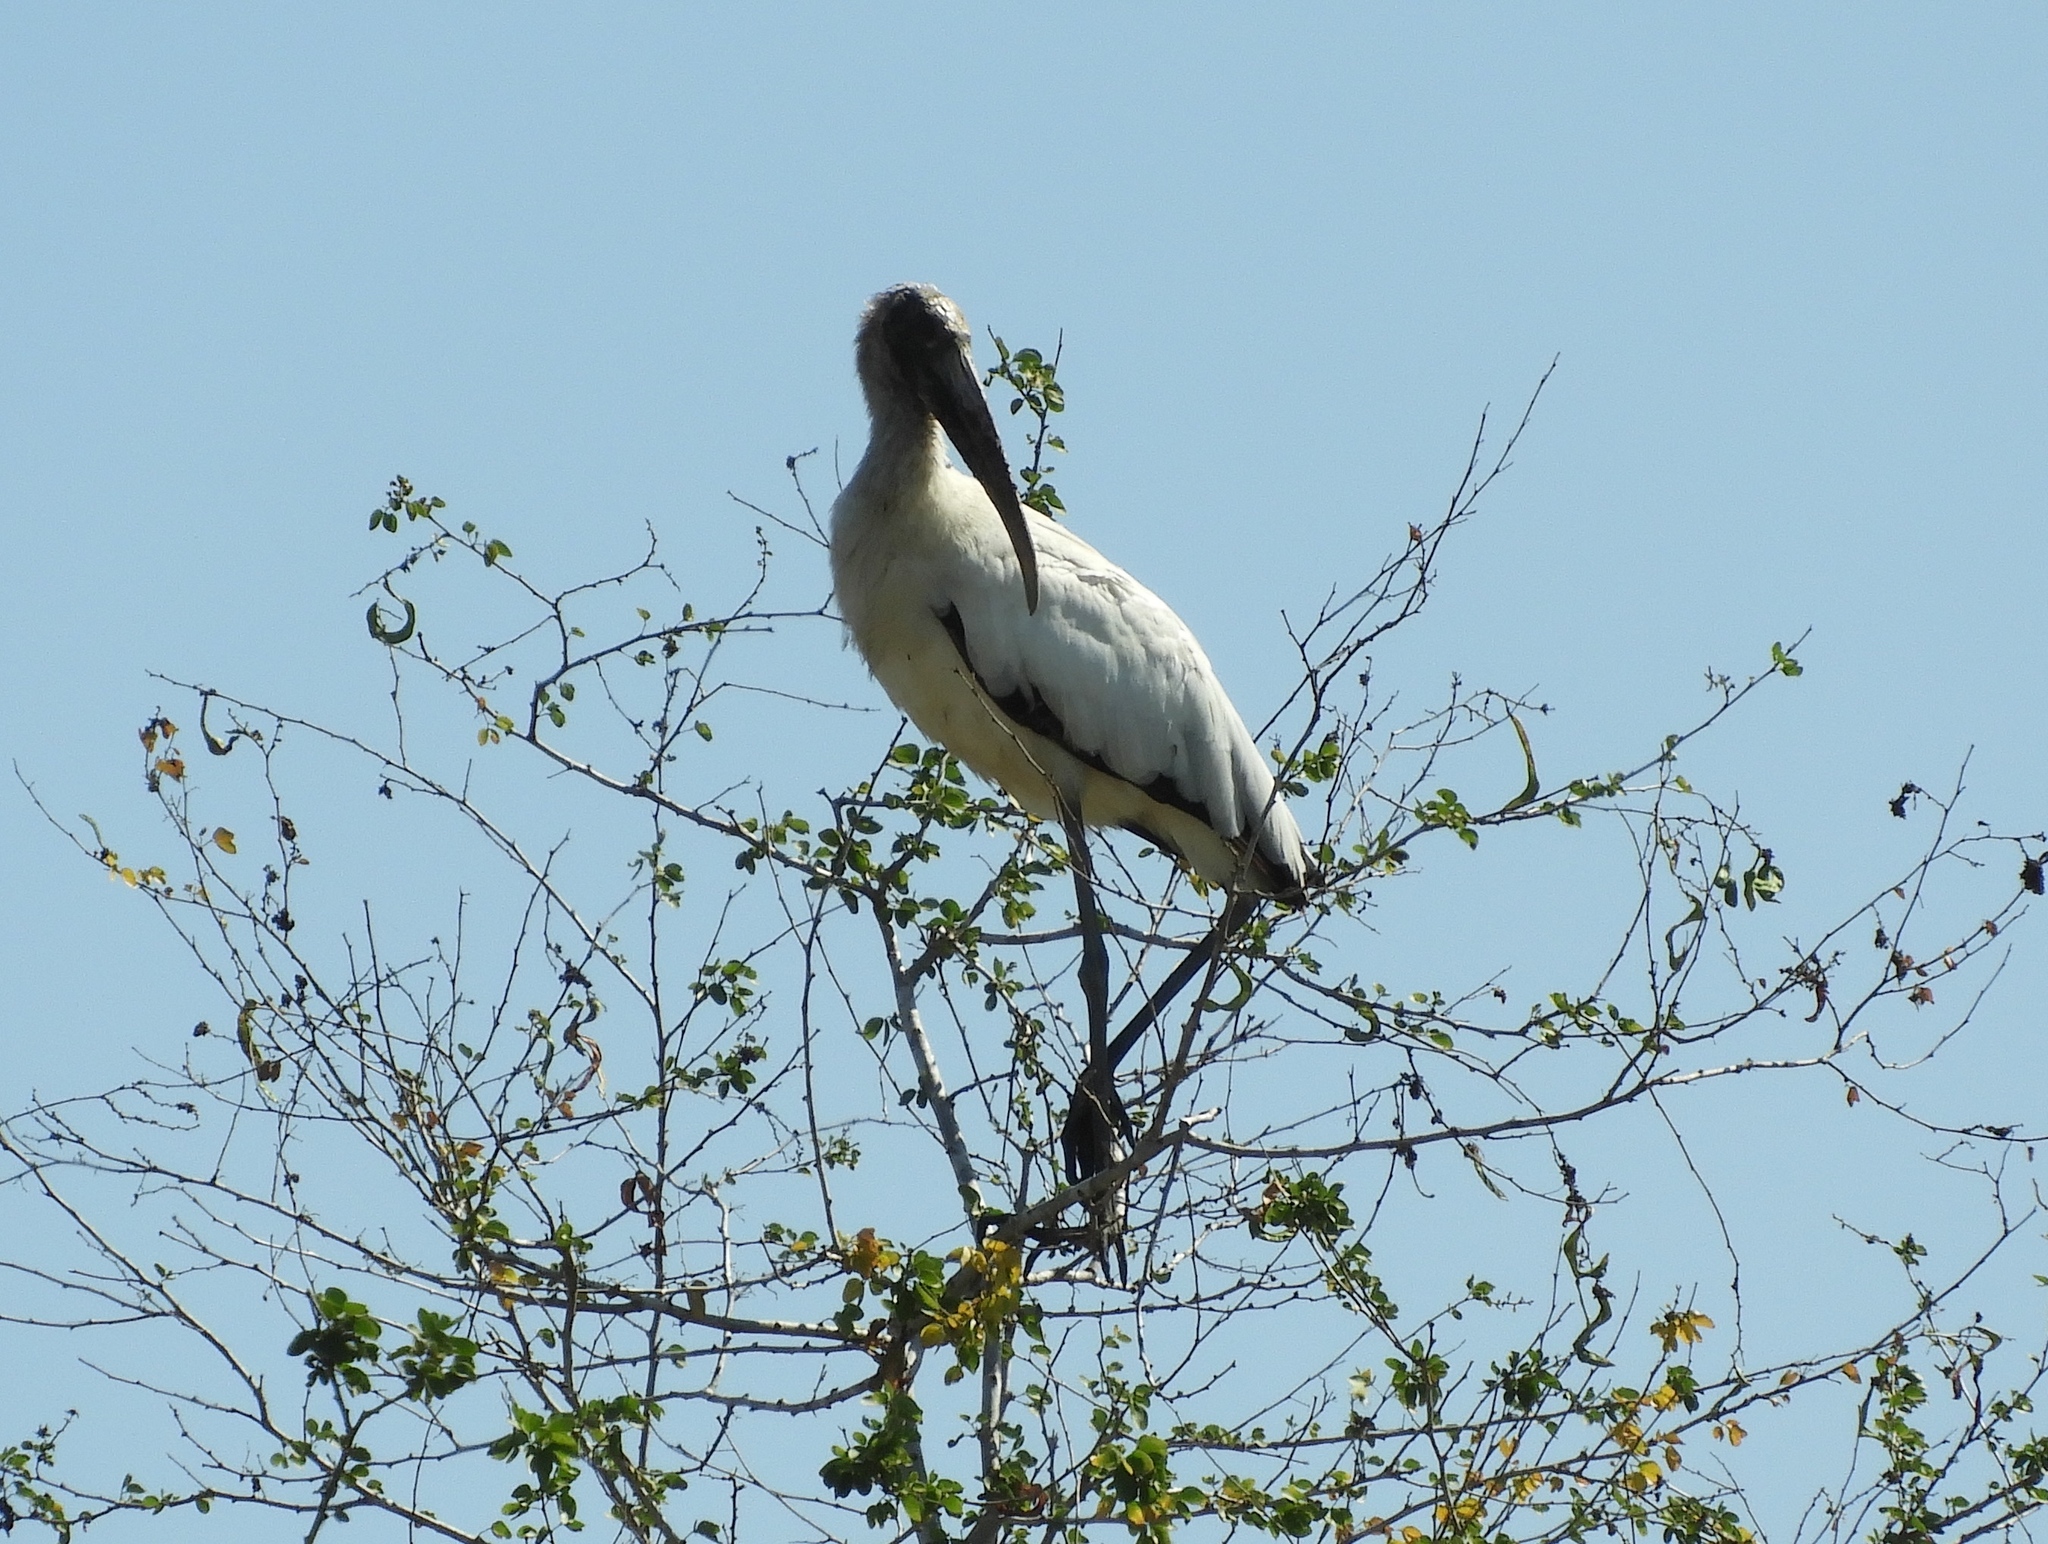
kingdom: Animalia
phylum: Chordata
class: Aves
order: Ciconiiformes
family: Ciconiidae
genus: Mycteria
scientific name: Mycteria americana
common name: Wood stork
